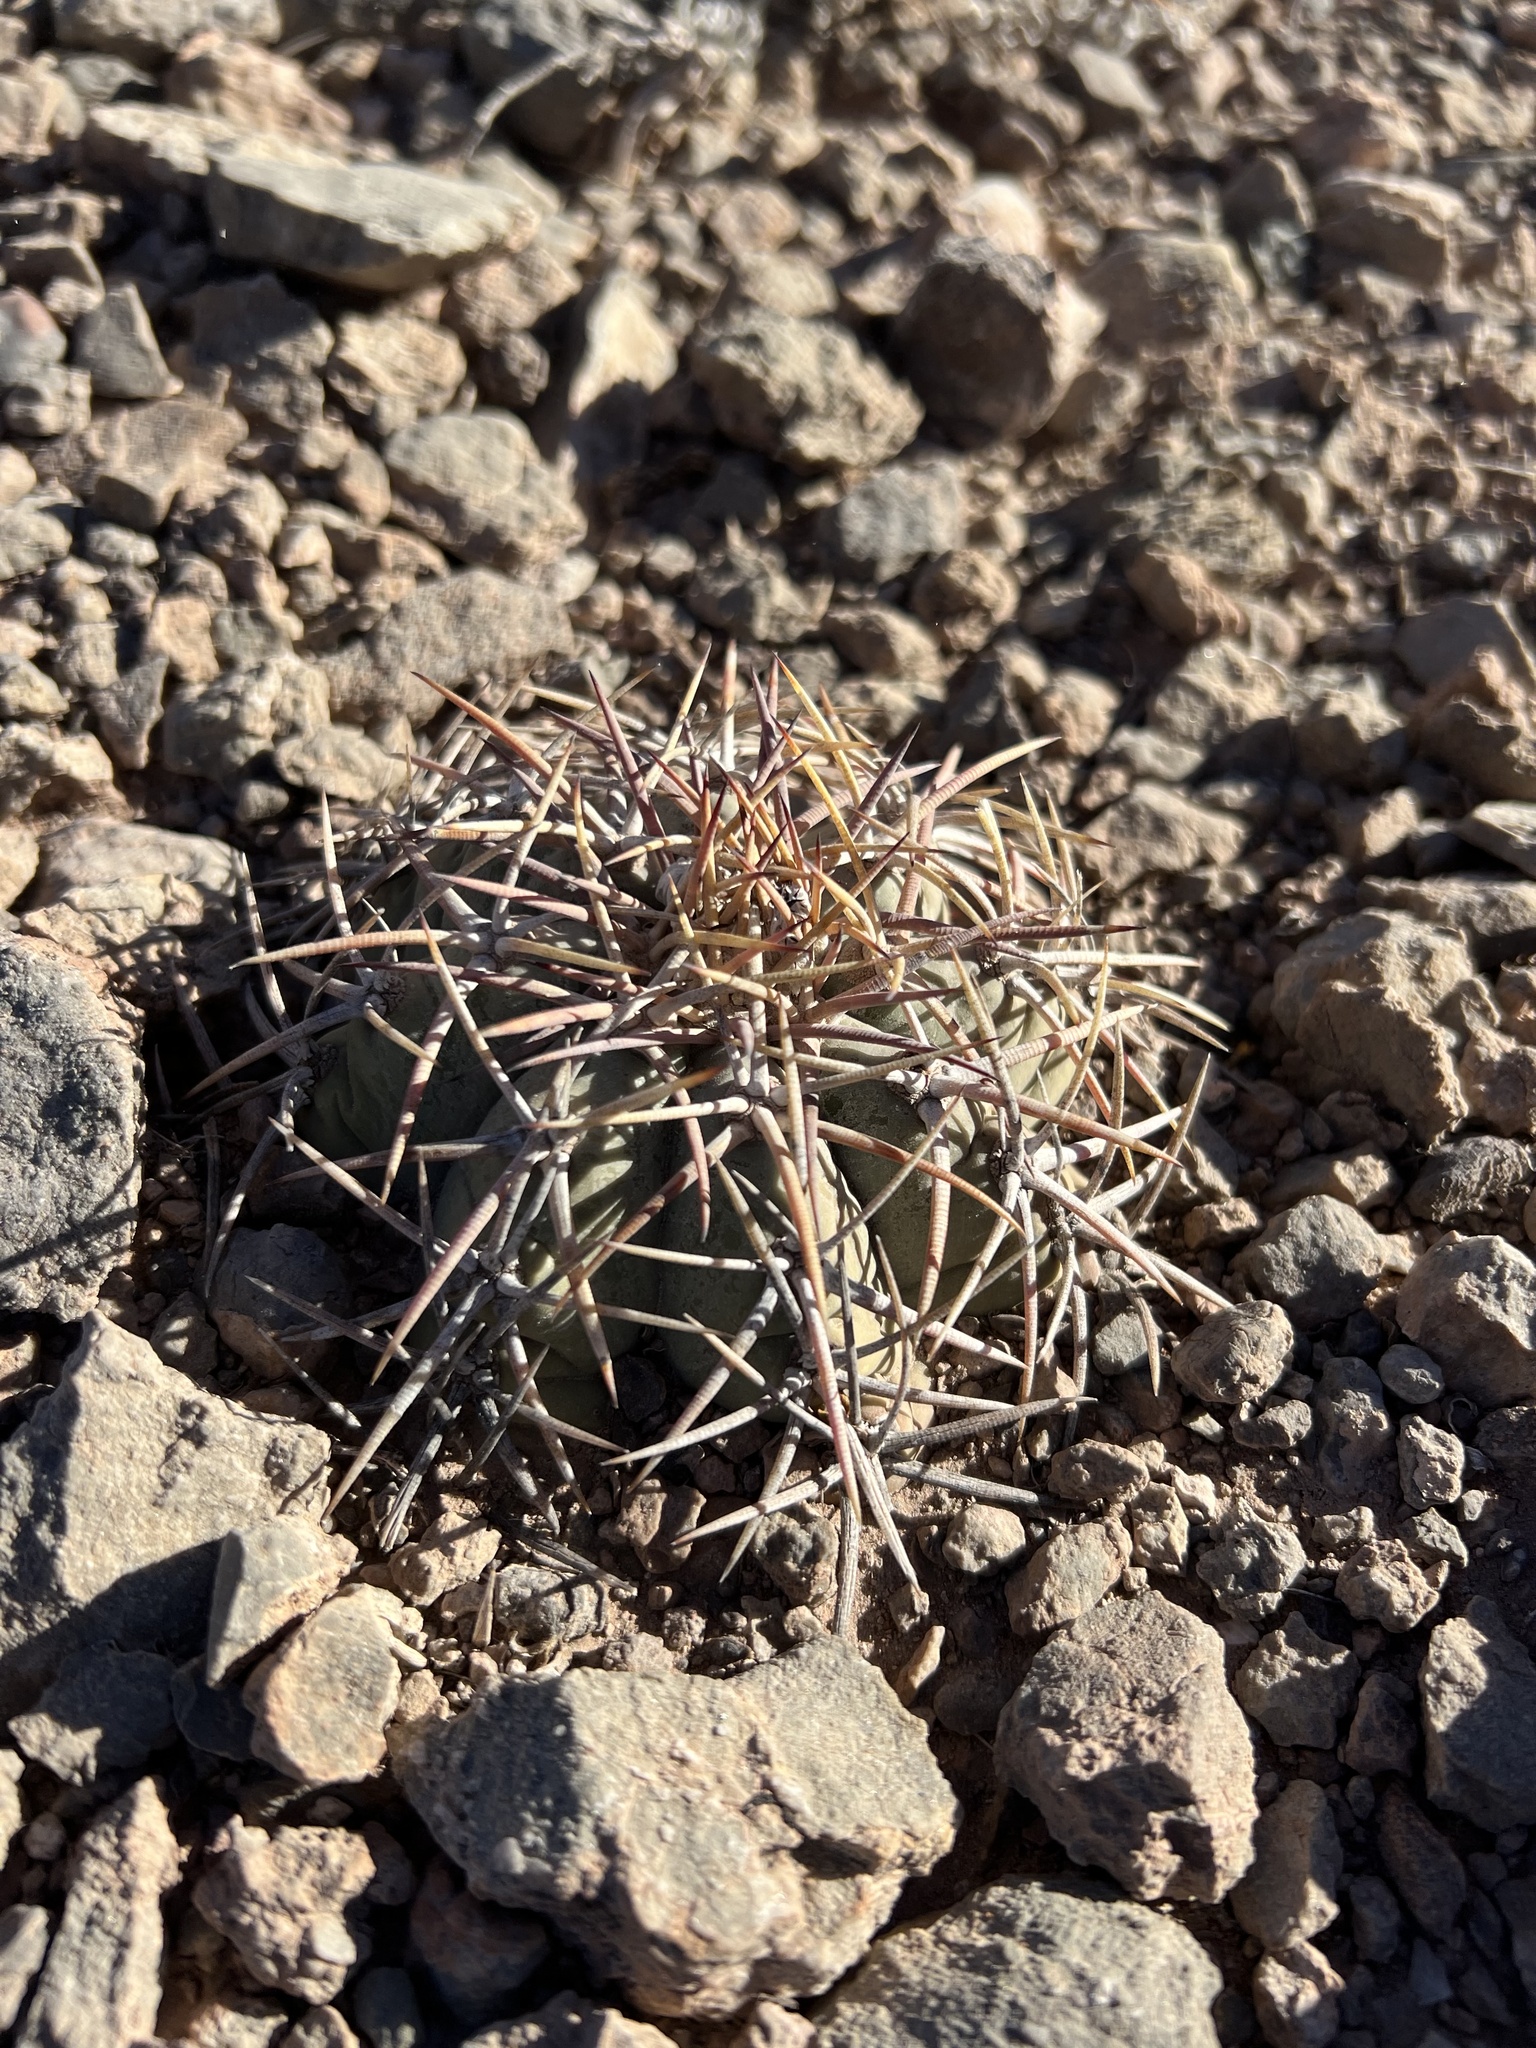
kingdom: Plantae
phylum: Tracheophyta
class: Magnoliopsida
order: Caryophyllales
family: Cactaceae
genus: Echinocactus
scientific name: Echinocactus horizonthalonius
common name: Devilshead
